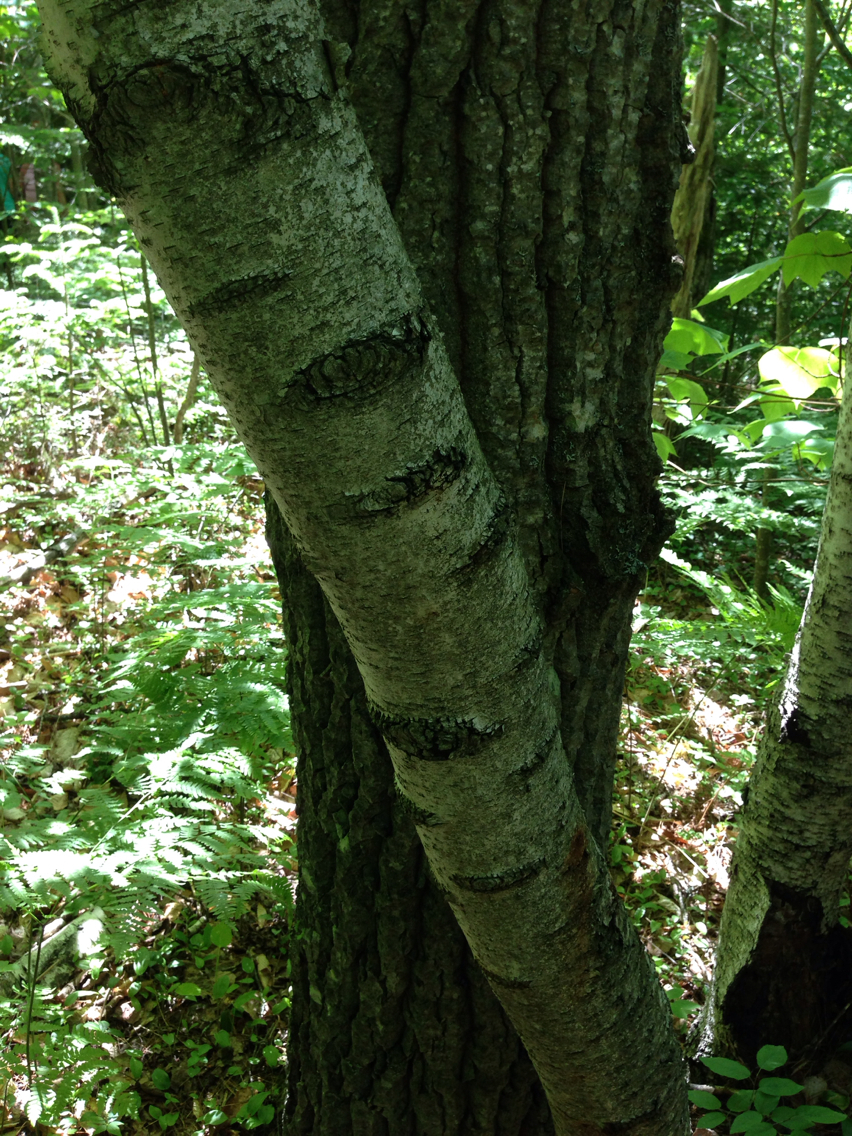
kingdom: Plantae
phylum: Tracheophyta
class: Magnoliopsida
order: Fagales
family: Betulaceae
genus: Betula
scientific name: Betula populifolia
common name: Fire birch
